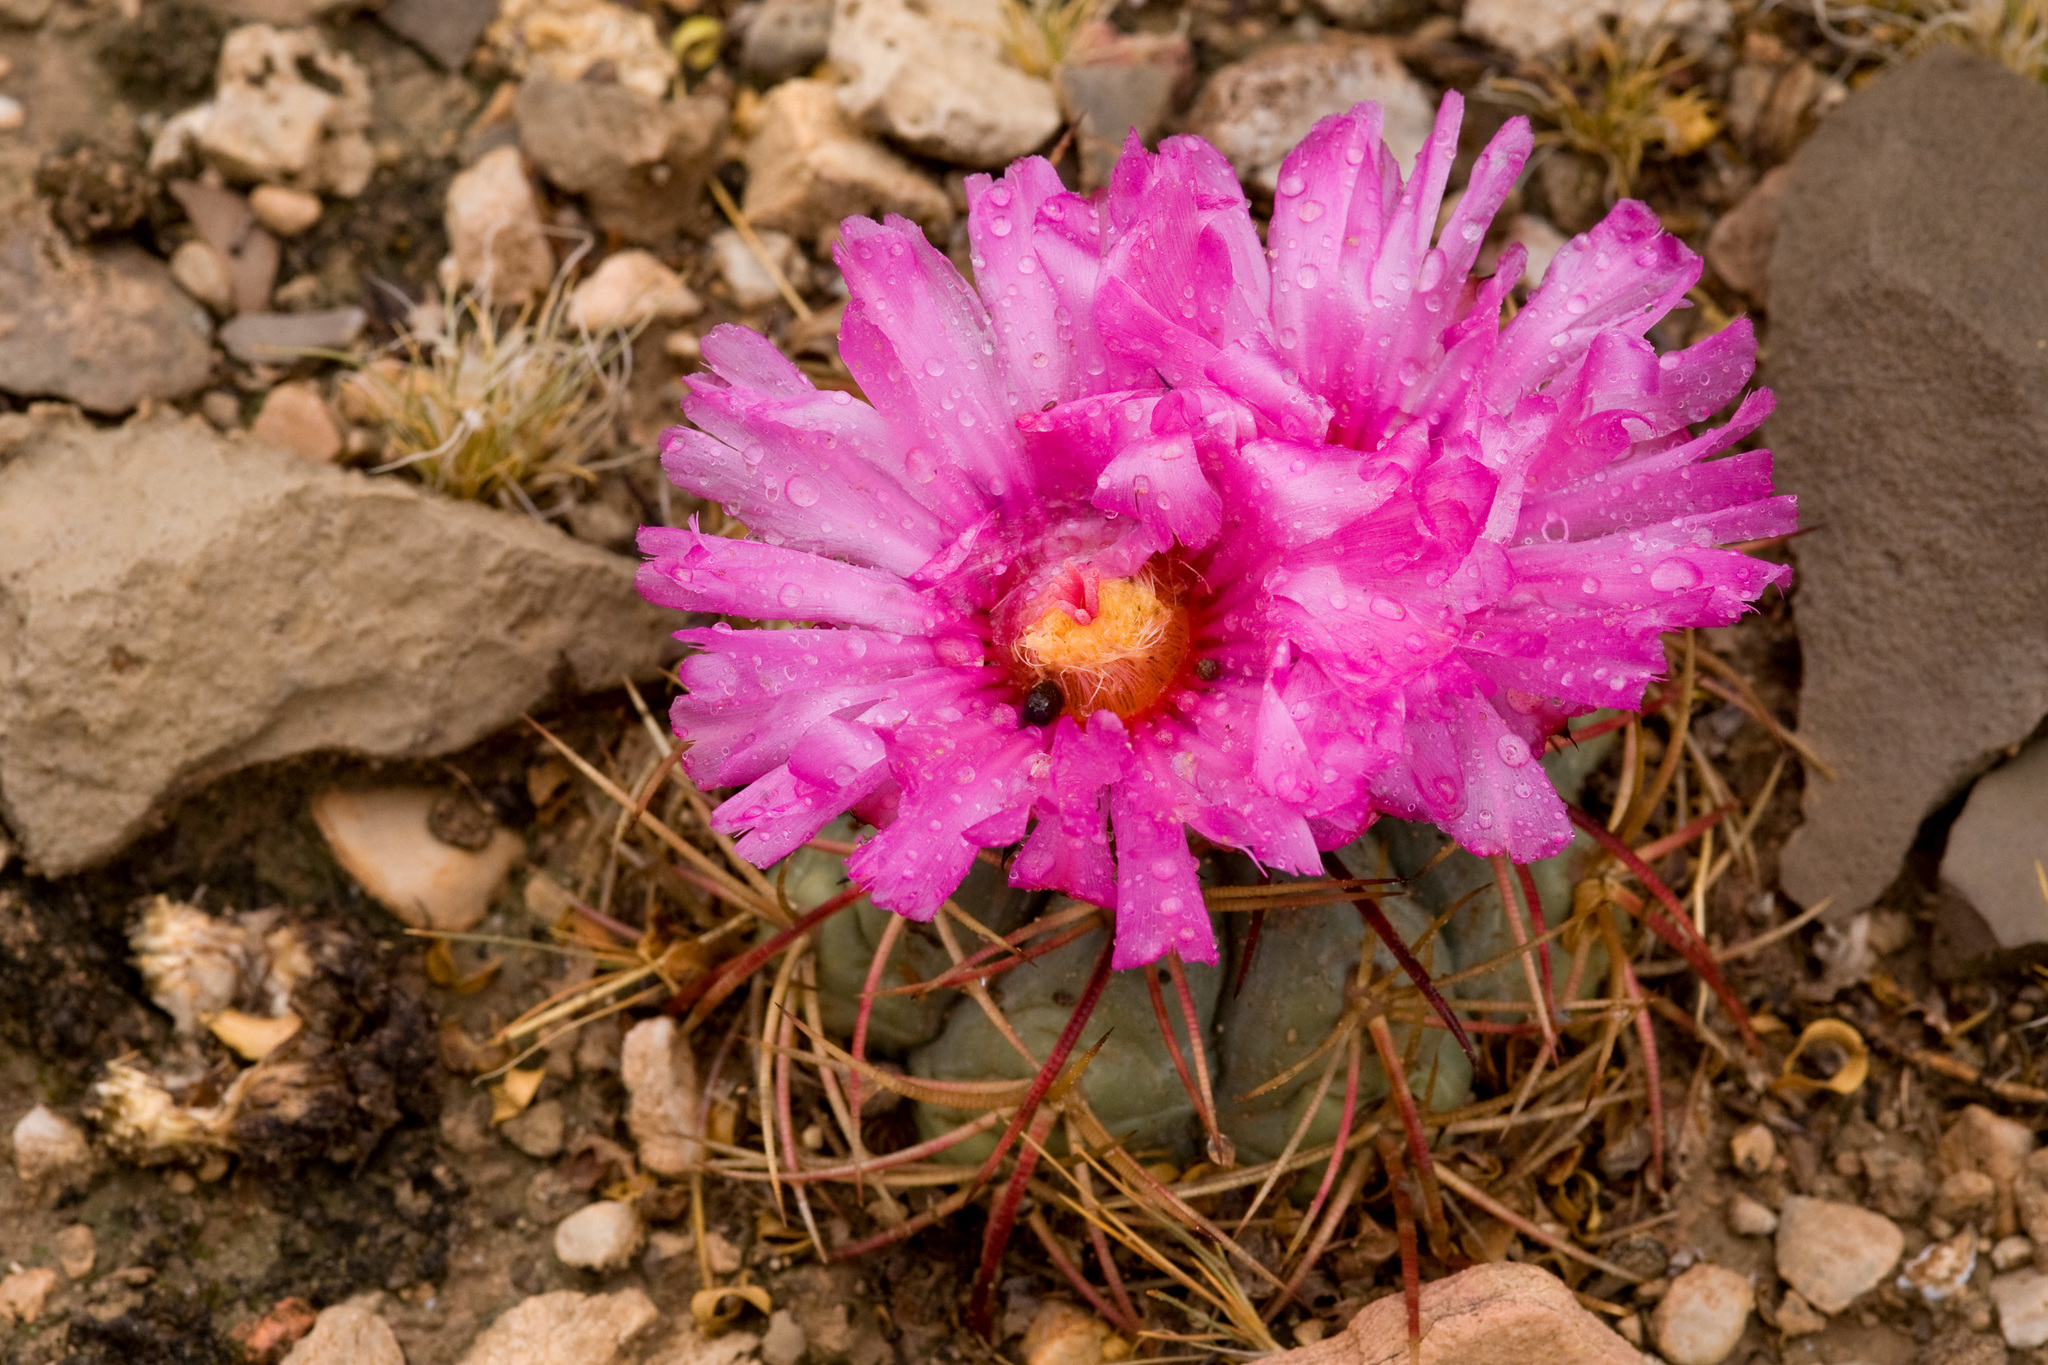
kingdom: Plantae
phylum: Tracheophyta
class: Magnoliopsida
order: Caryophyllales
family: Cactaceae
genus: Echinocactus
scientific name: Echinocactus horizonthalonius
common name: Devilshead
